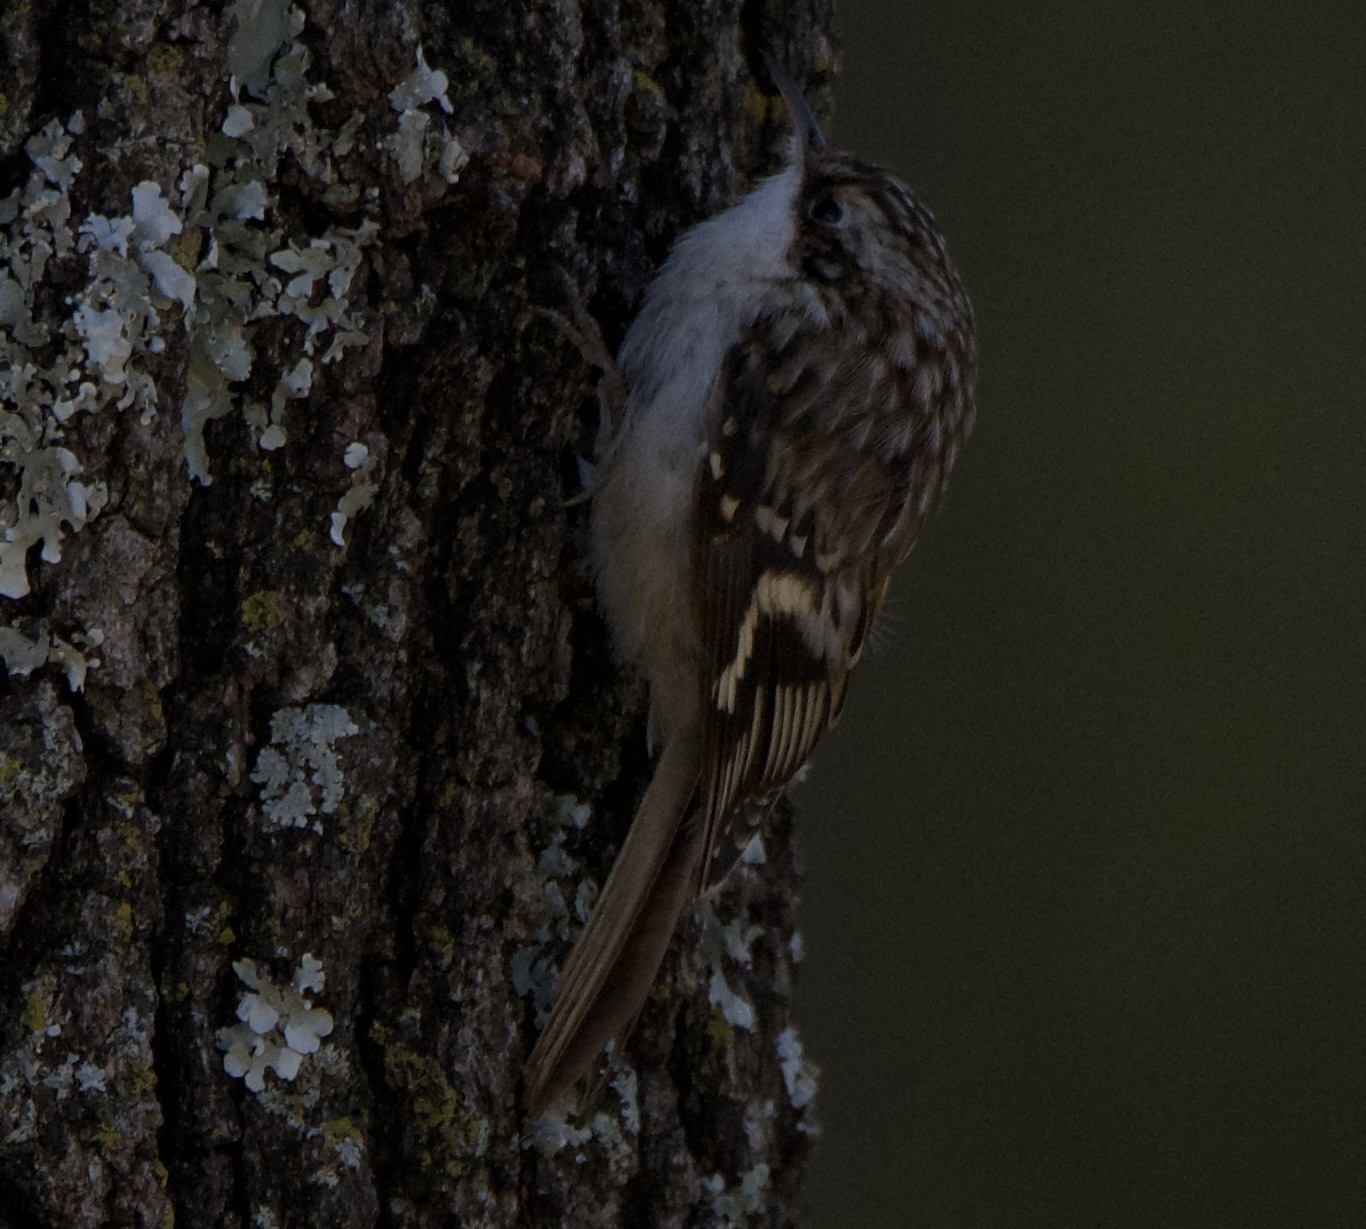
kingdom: Animalia
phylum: Chordata
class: Aves
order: Passeriformes
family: Certhiidae
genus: Certhia
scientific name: Certhia americana
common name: Brown creeper
